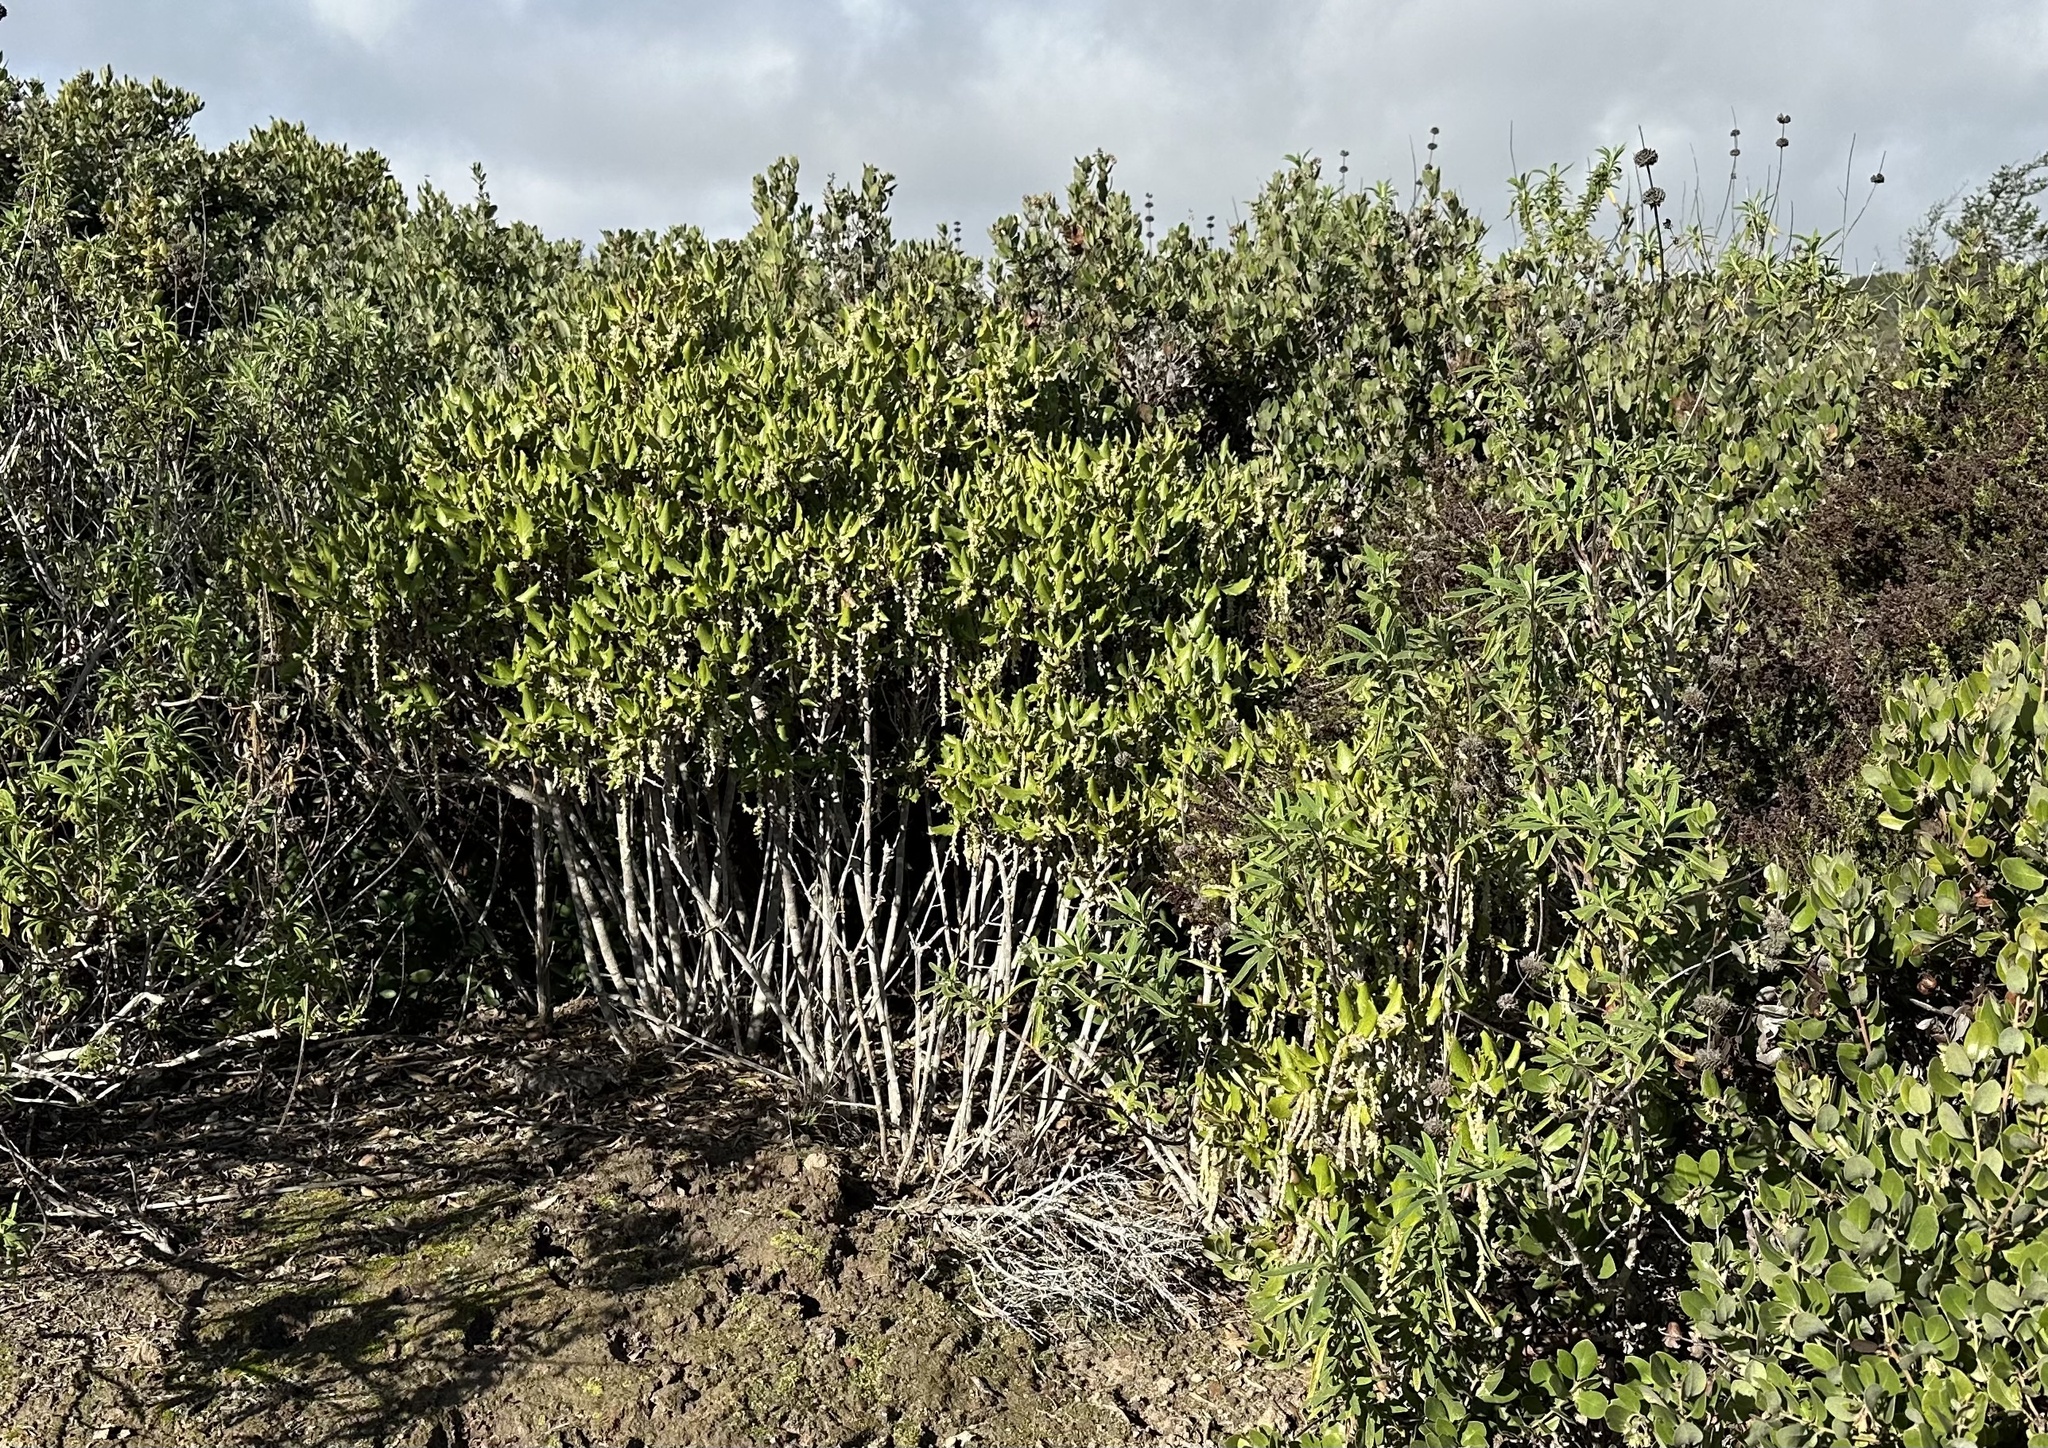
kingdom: Plantae
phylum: Tracheophyta
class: Magnoliopsida
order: Garryales
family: Garryaceae
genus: Garrya
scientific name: Garrya elliptica
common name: Silk-tassel
